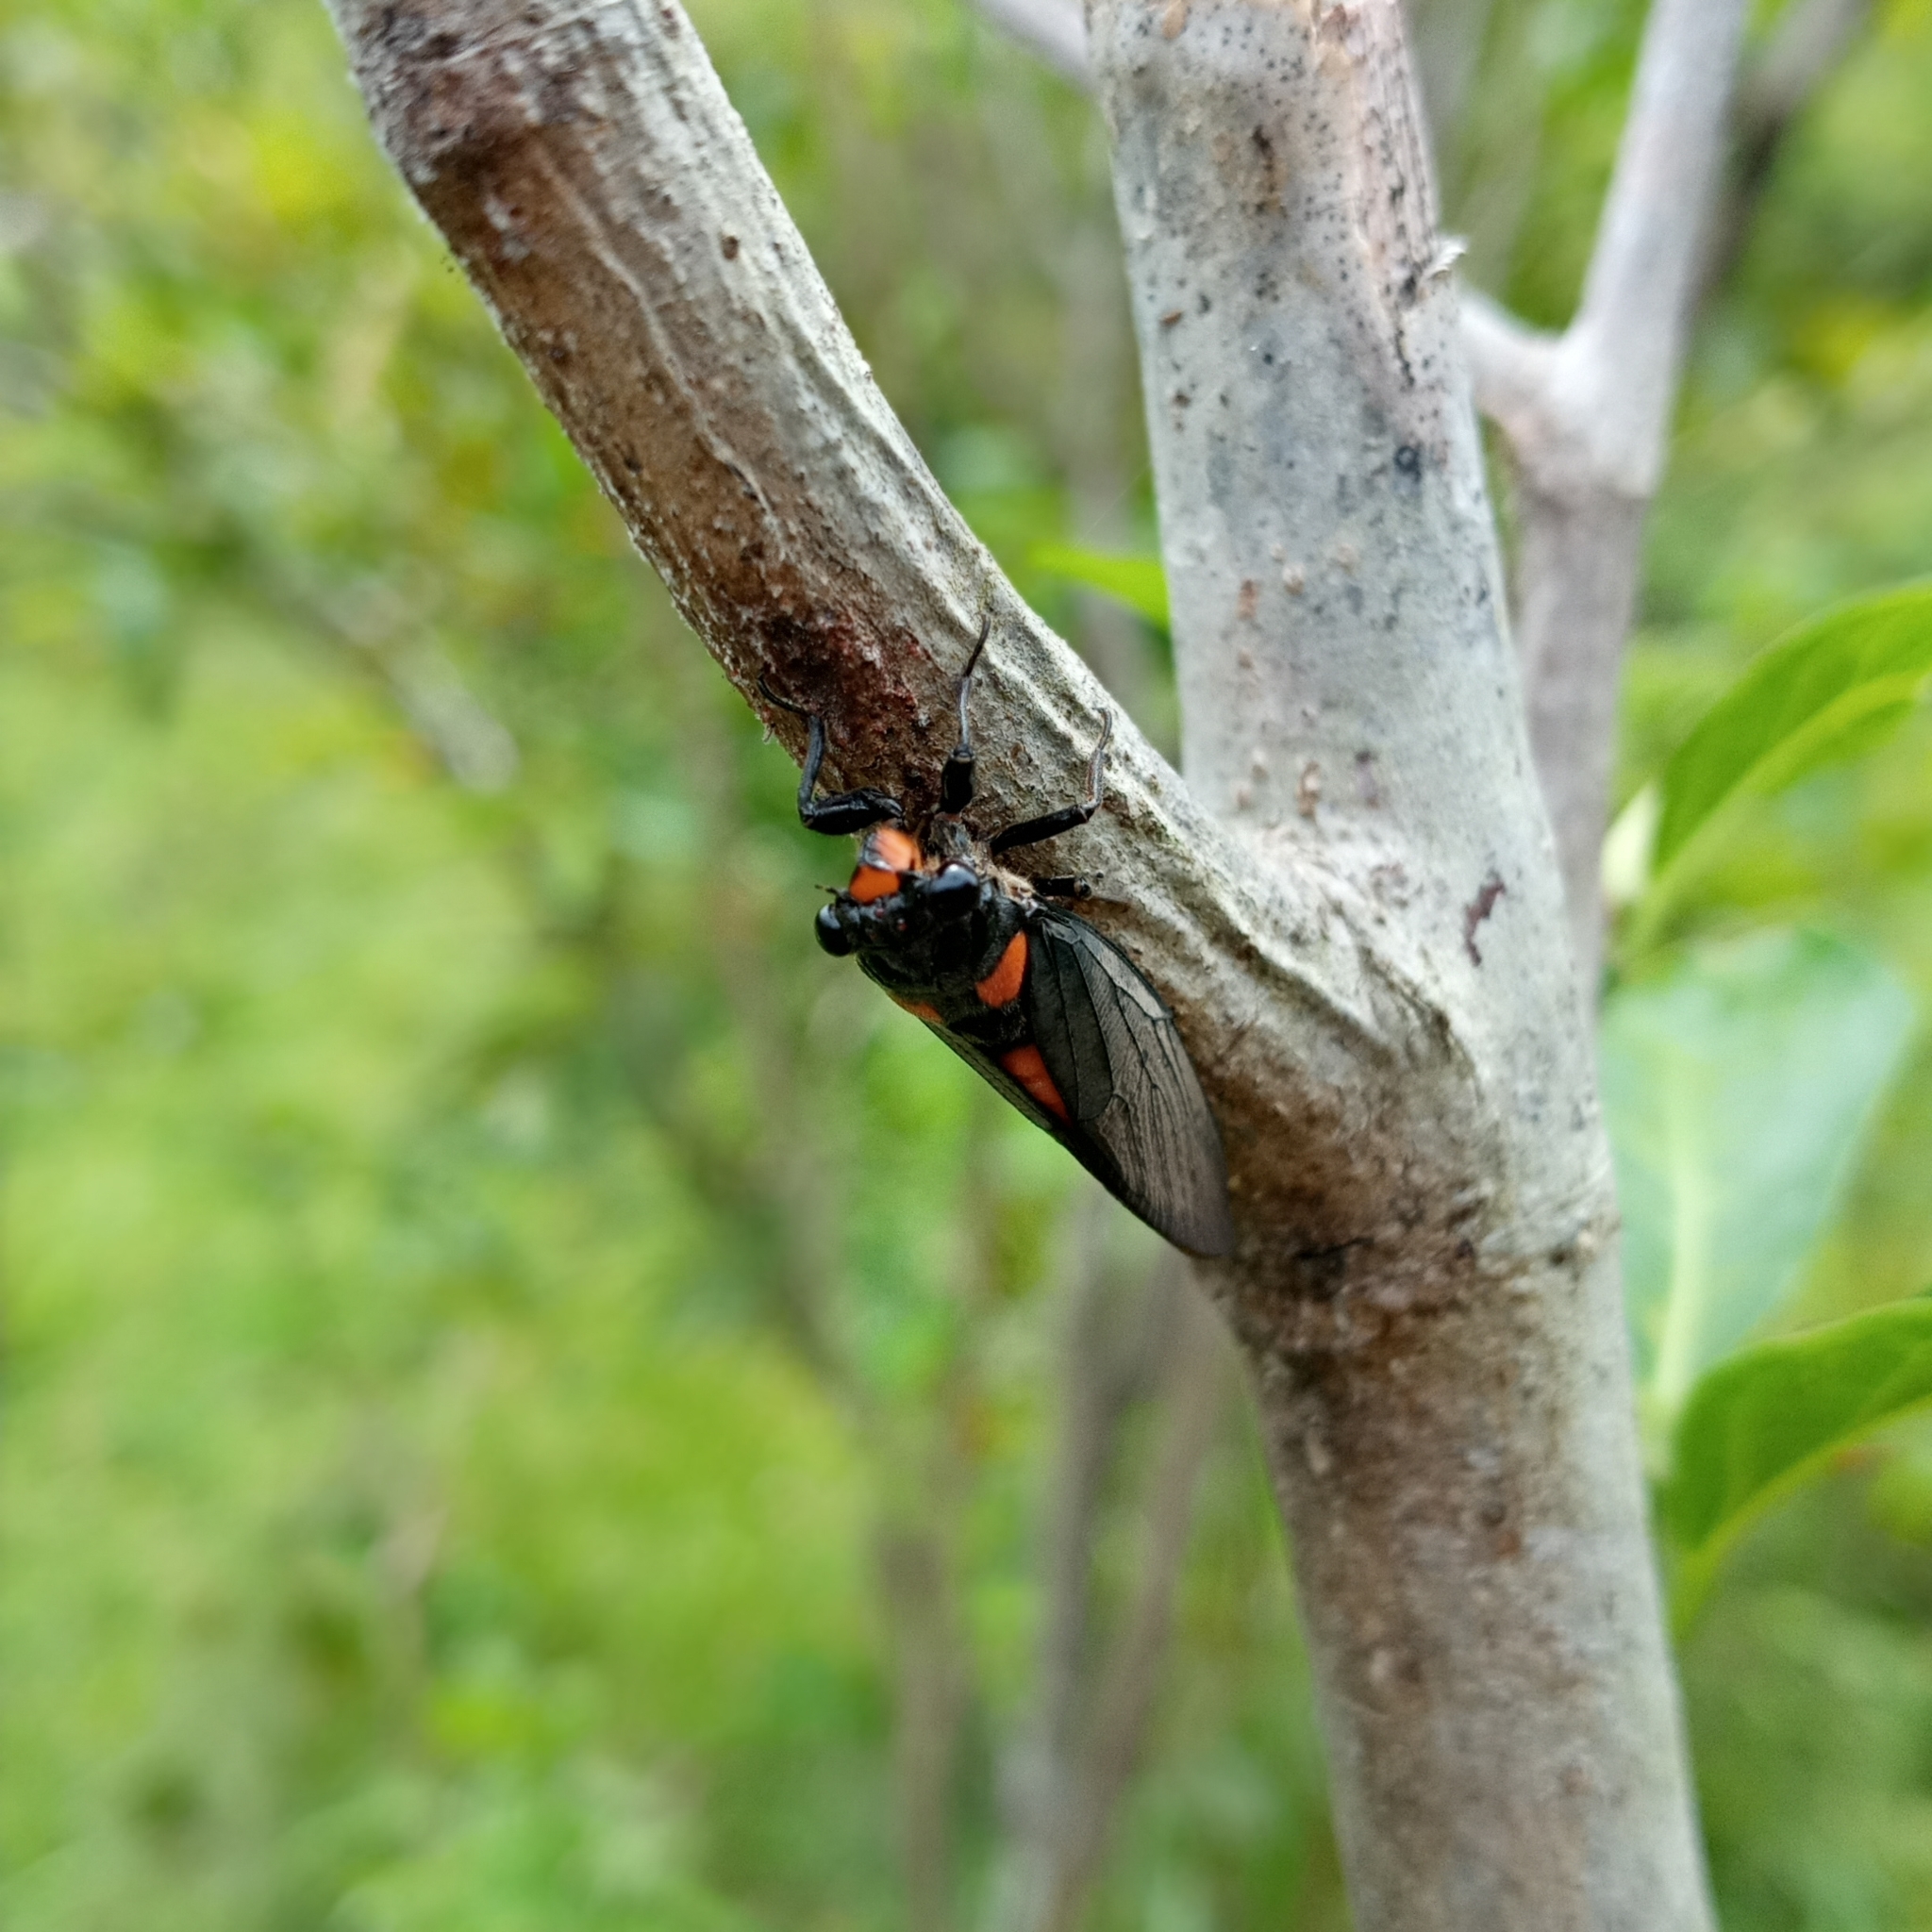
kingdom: Animalia
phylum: Arthropoda
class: Insecta
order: Hemiptera
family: Cicadidae
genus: Huechys
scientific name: Huechys sanguinea
